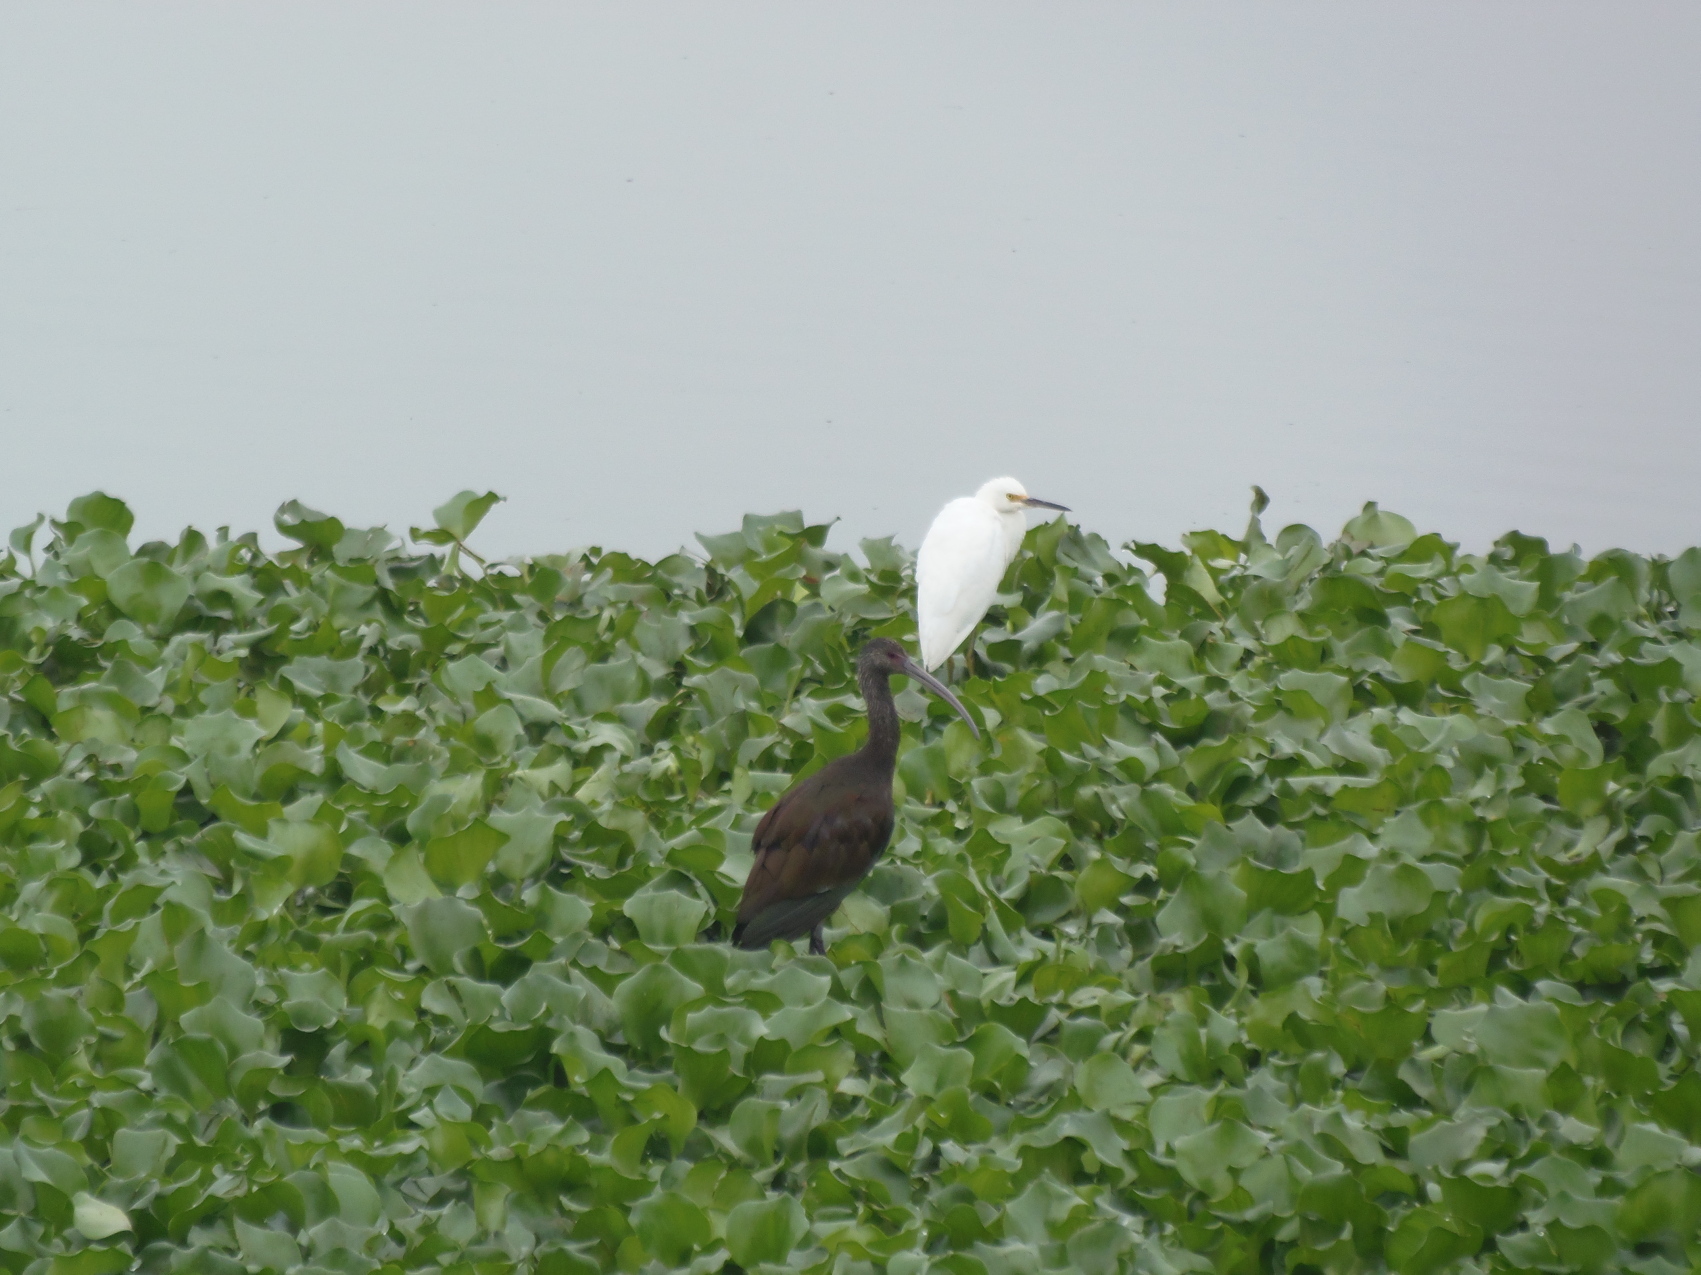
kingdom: Animalia
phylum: Chordata
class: Aves
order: Pelecaniformes
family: Threskiornithidae
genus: Plegadis
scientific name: Plegadis chihi
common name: White-faced ibis
